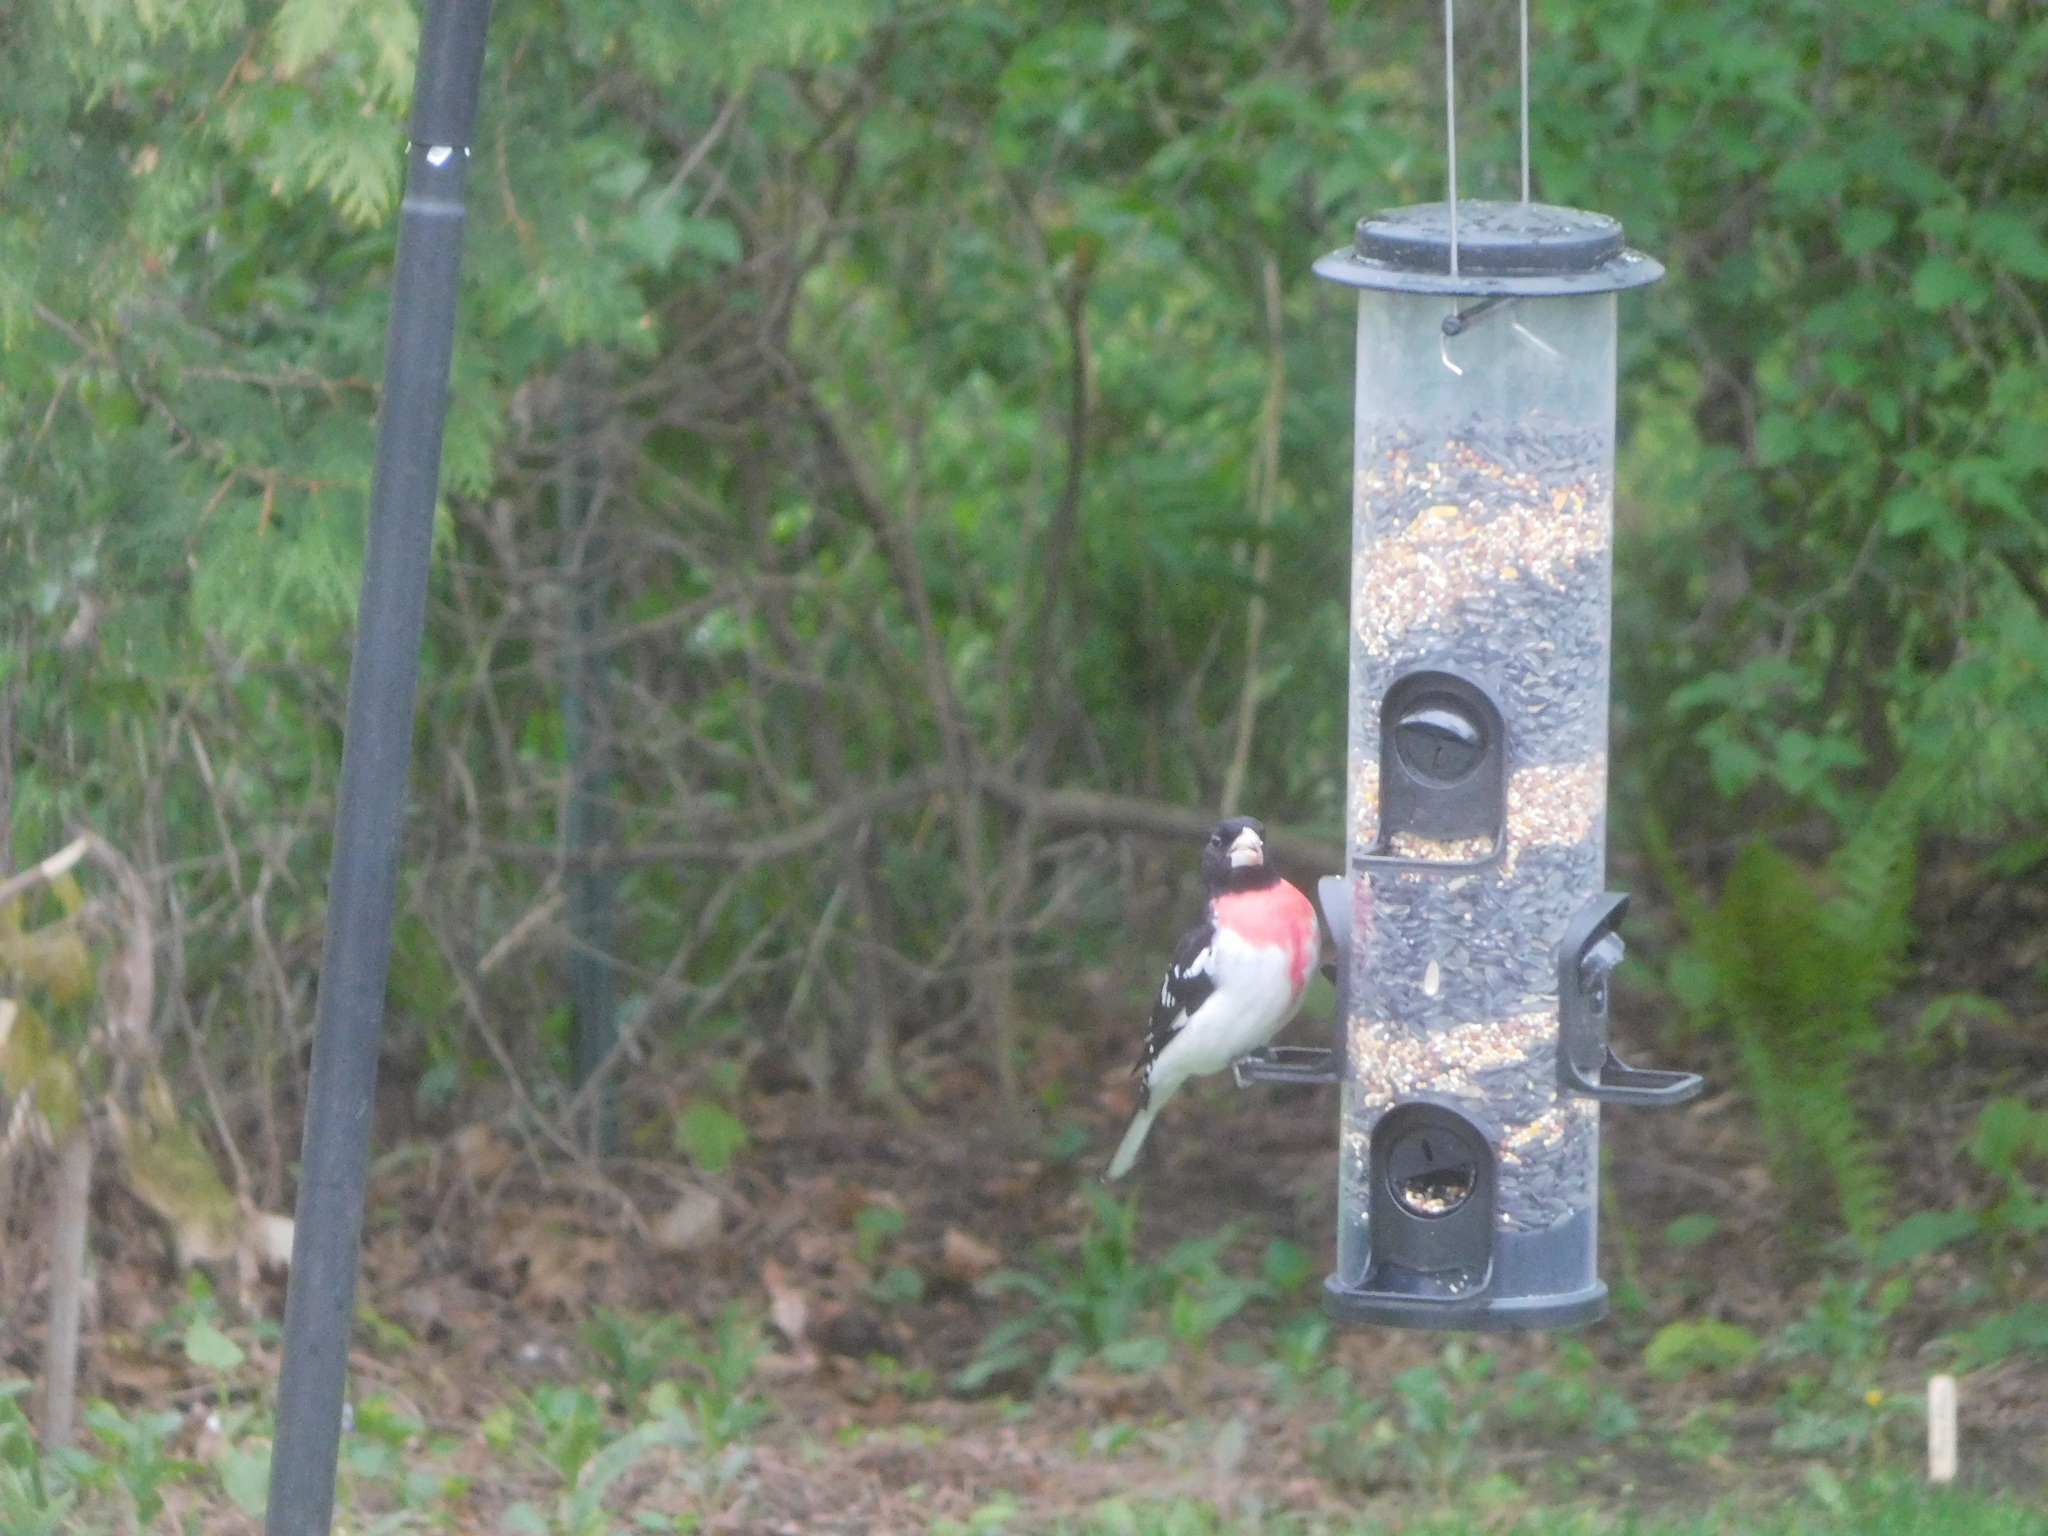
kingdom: Animalia
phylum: Chordata
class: Aves
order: Passeriformes
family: Cardinalidae
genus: Pheucticus
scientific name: Pheucticus ludovicianus
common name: Rose-breasted grosbeak
